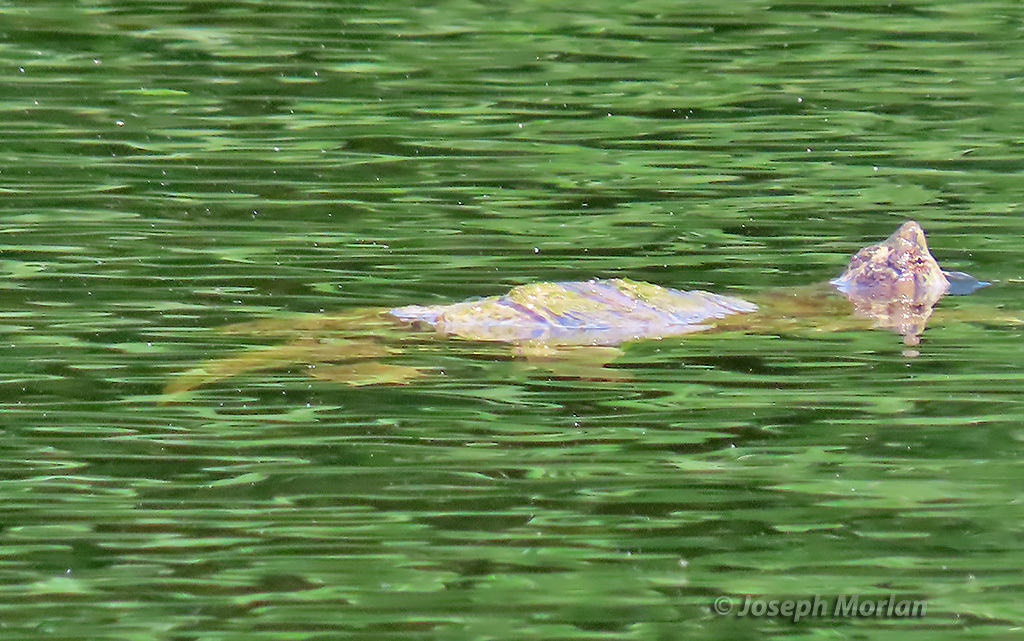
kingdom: Animalia
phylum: Chordata
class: Testudines
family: Chelydridae
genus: Chelydra
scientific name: Chelydra serpentina
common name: Common snapping turtle
